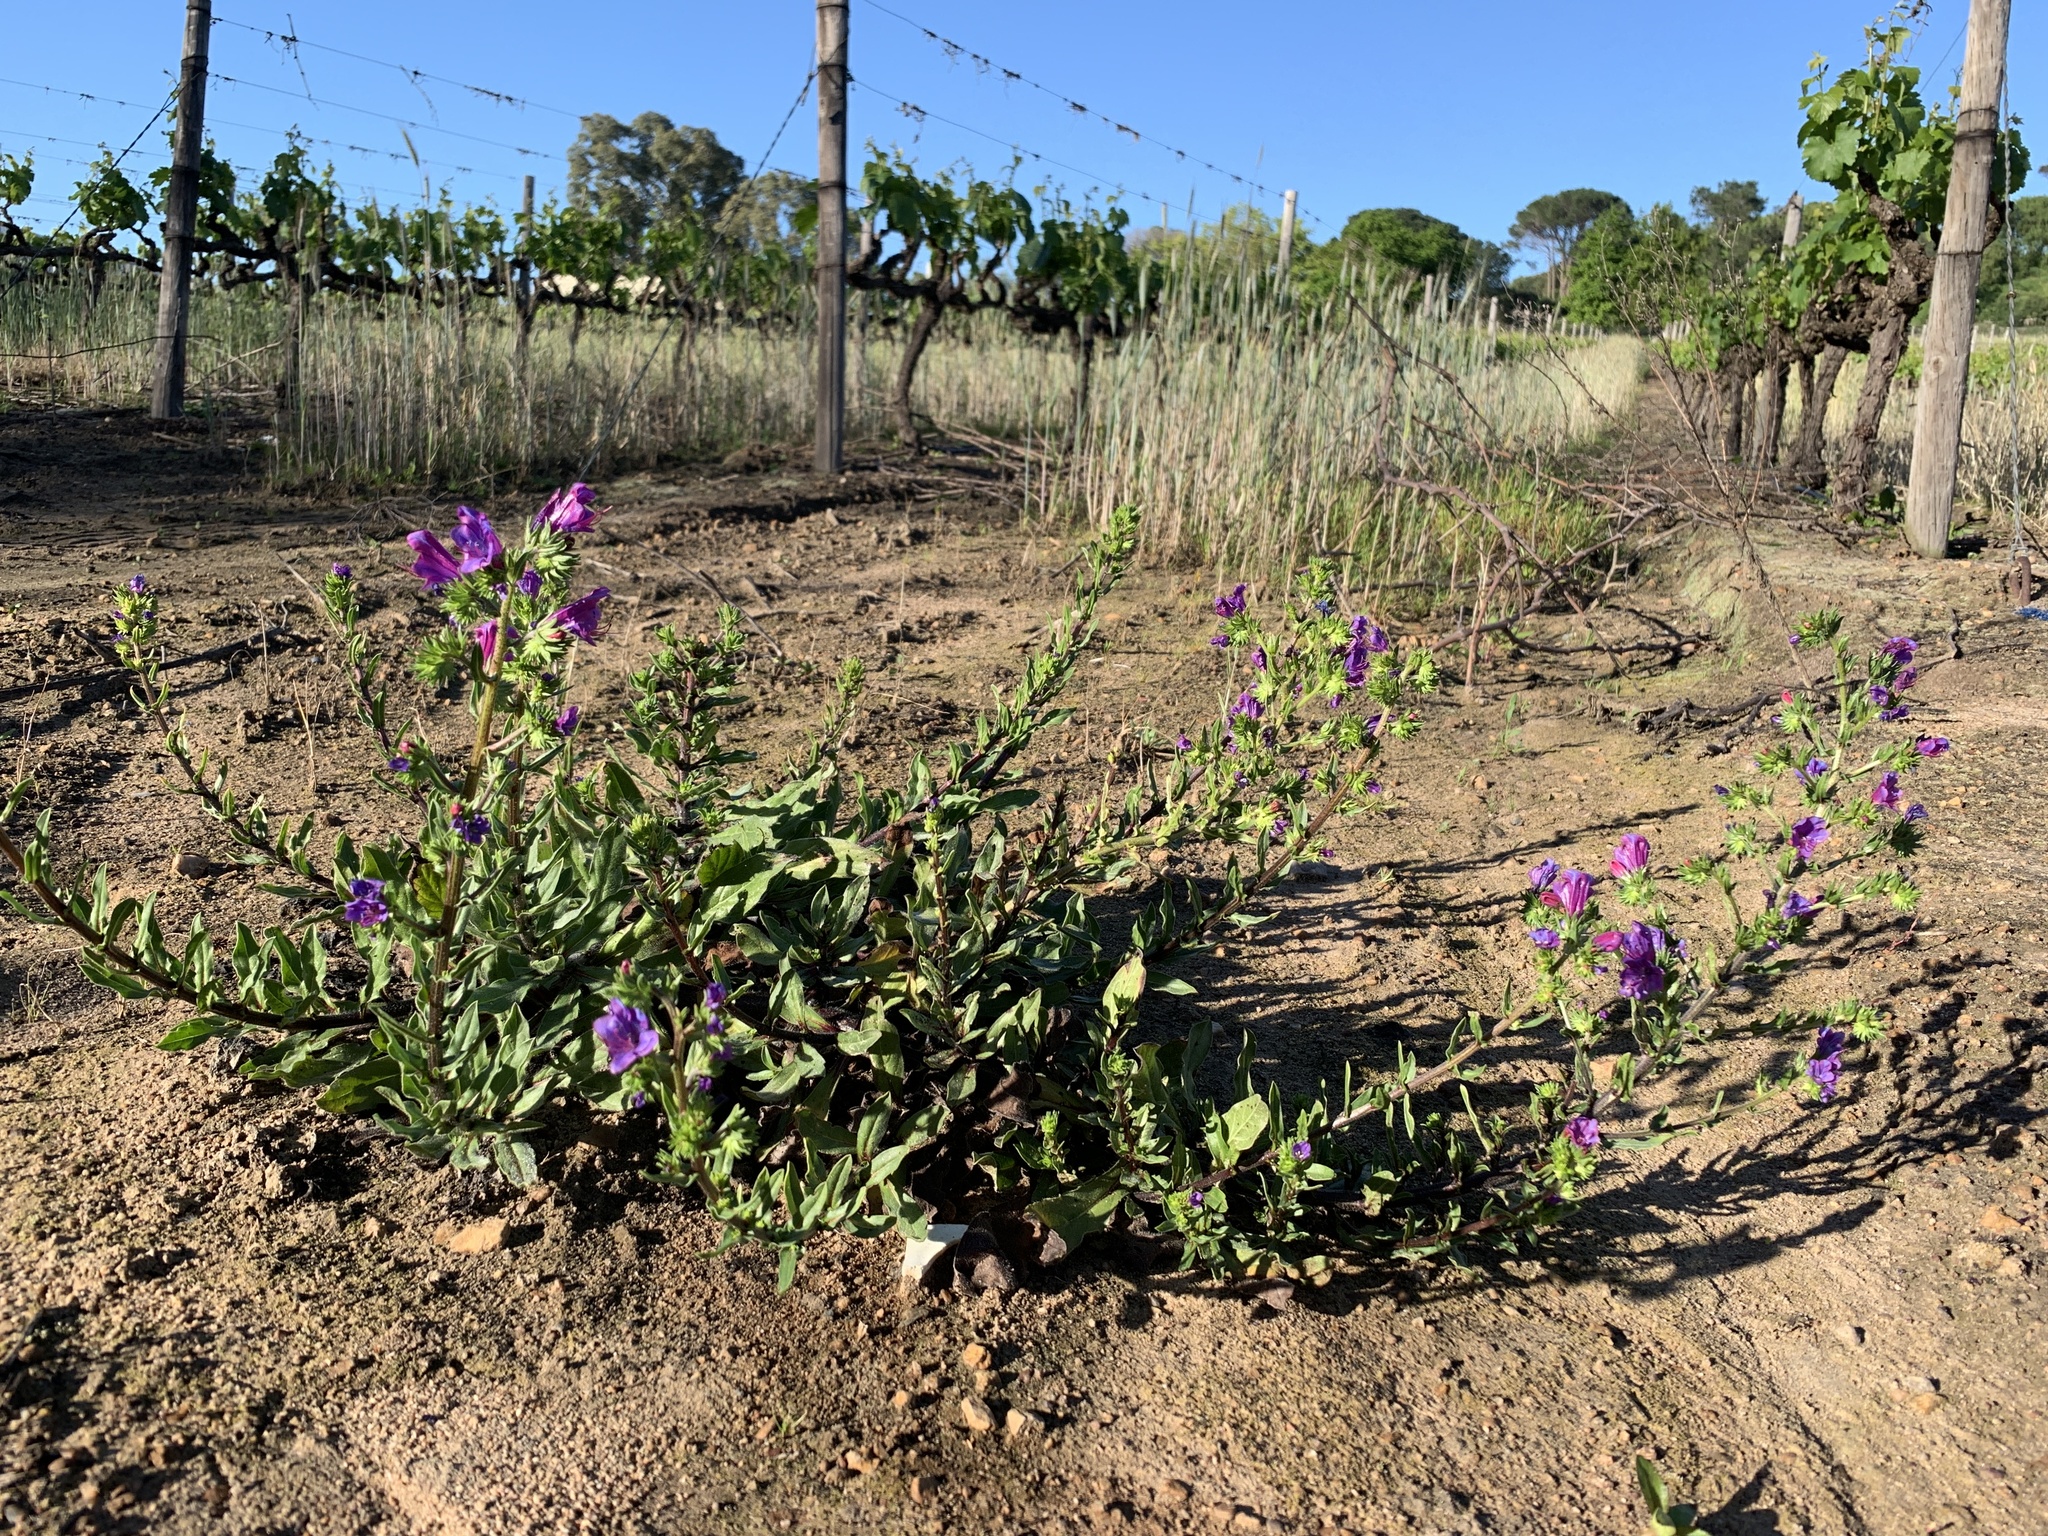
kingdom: Plantae
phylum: Tracheophyta
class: Magnoliopsida
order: Boraginales
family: Boraginaceae
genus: Echium
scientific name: Echium plantagineum
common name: Purple viper's-bugloss
